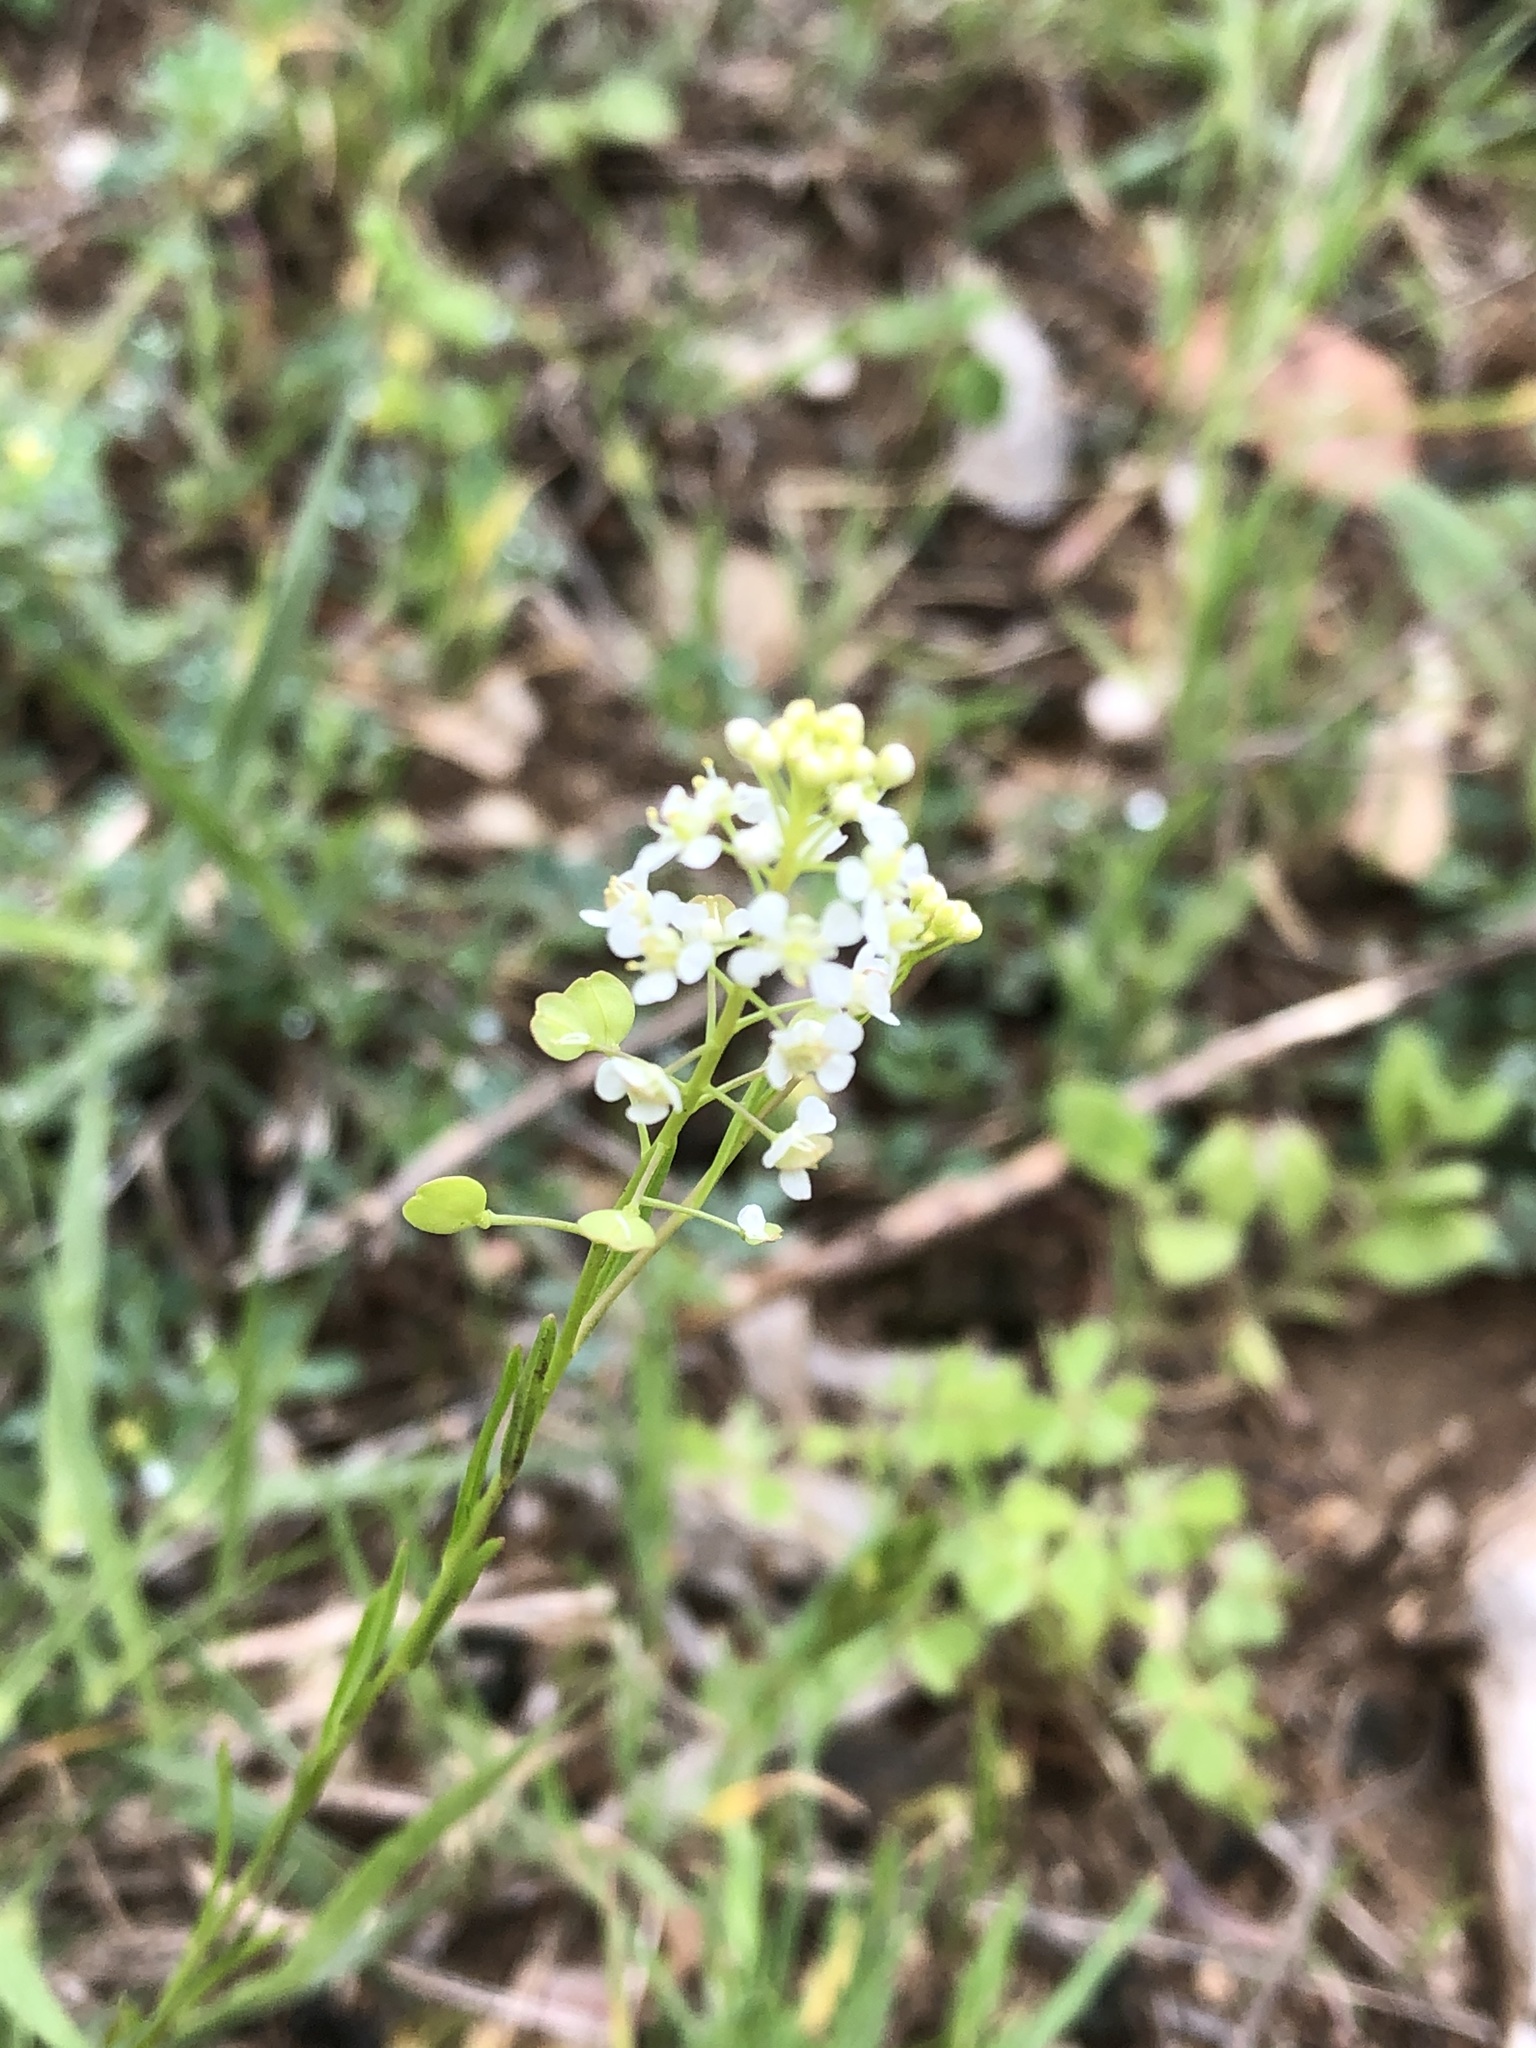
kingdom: Plantae
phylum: Tracheophyta
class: Magnoliopsida
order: Brassicales
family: Brassicaceae
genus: Lepidium
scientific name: Lepidium virginicum
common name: Least pepperwort
